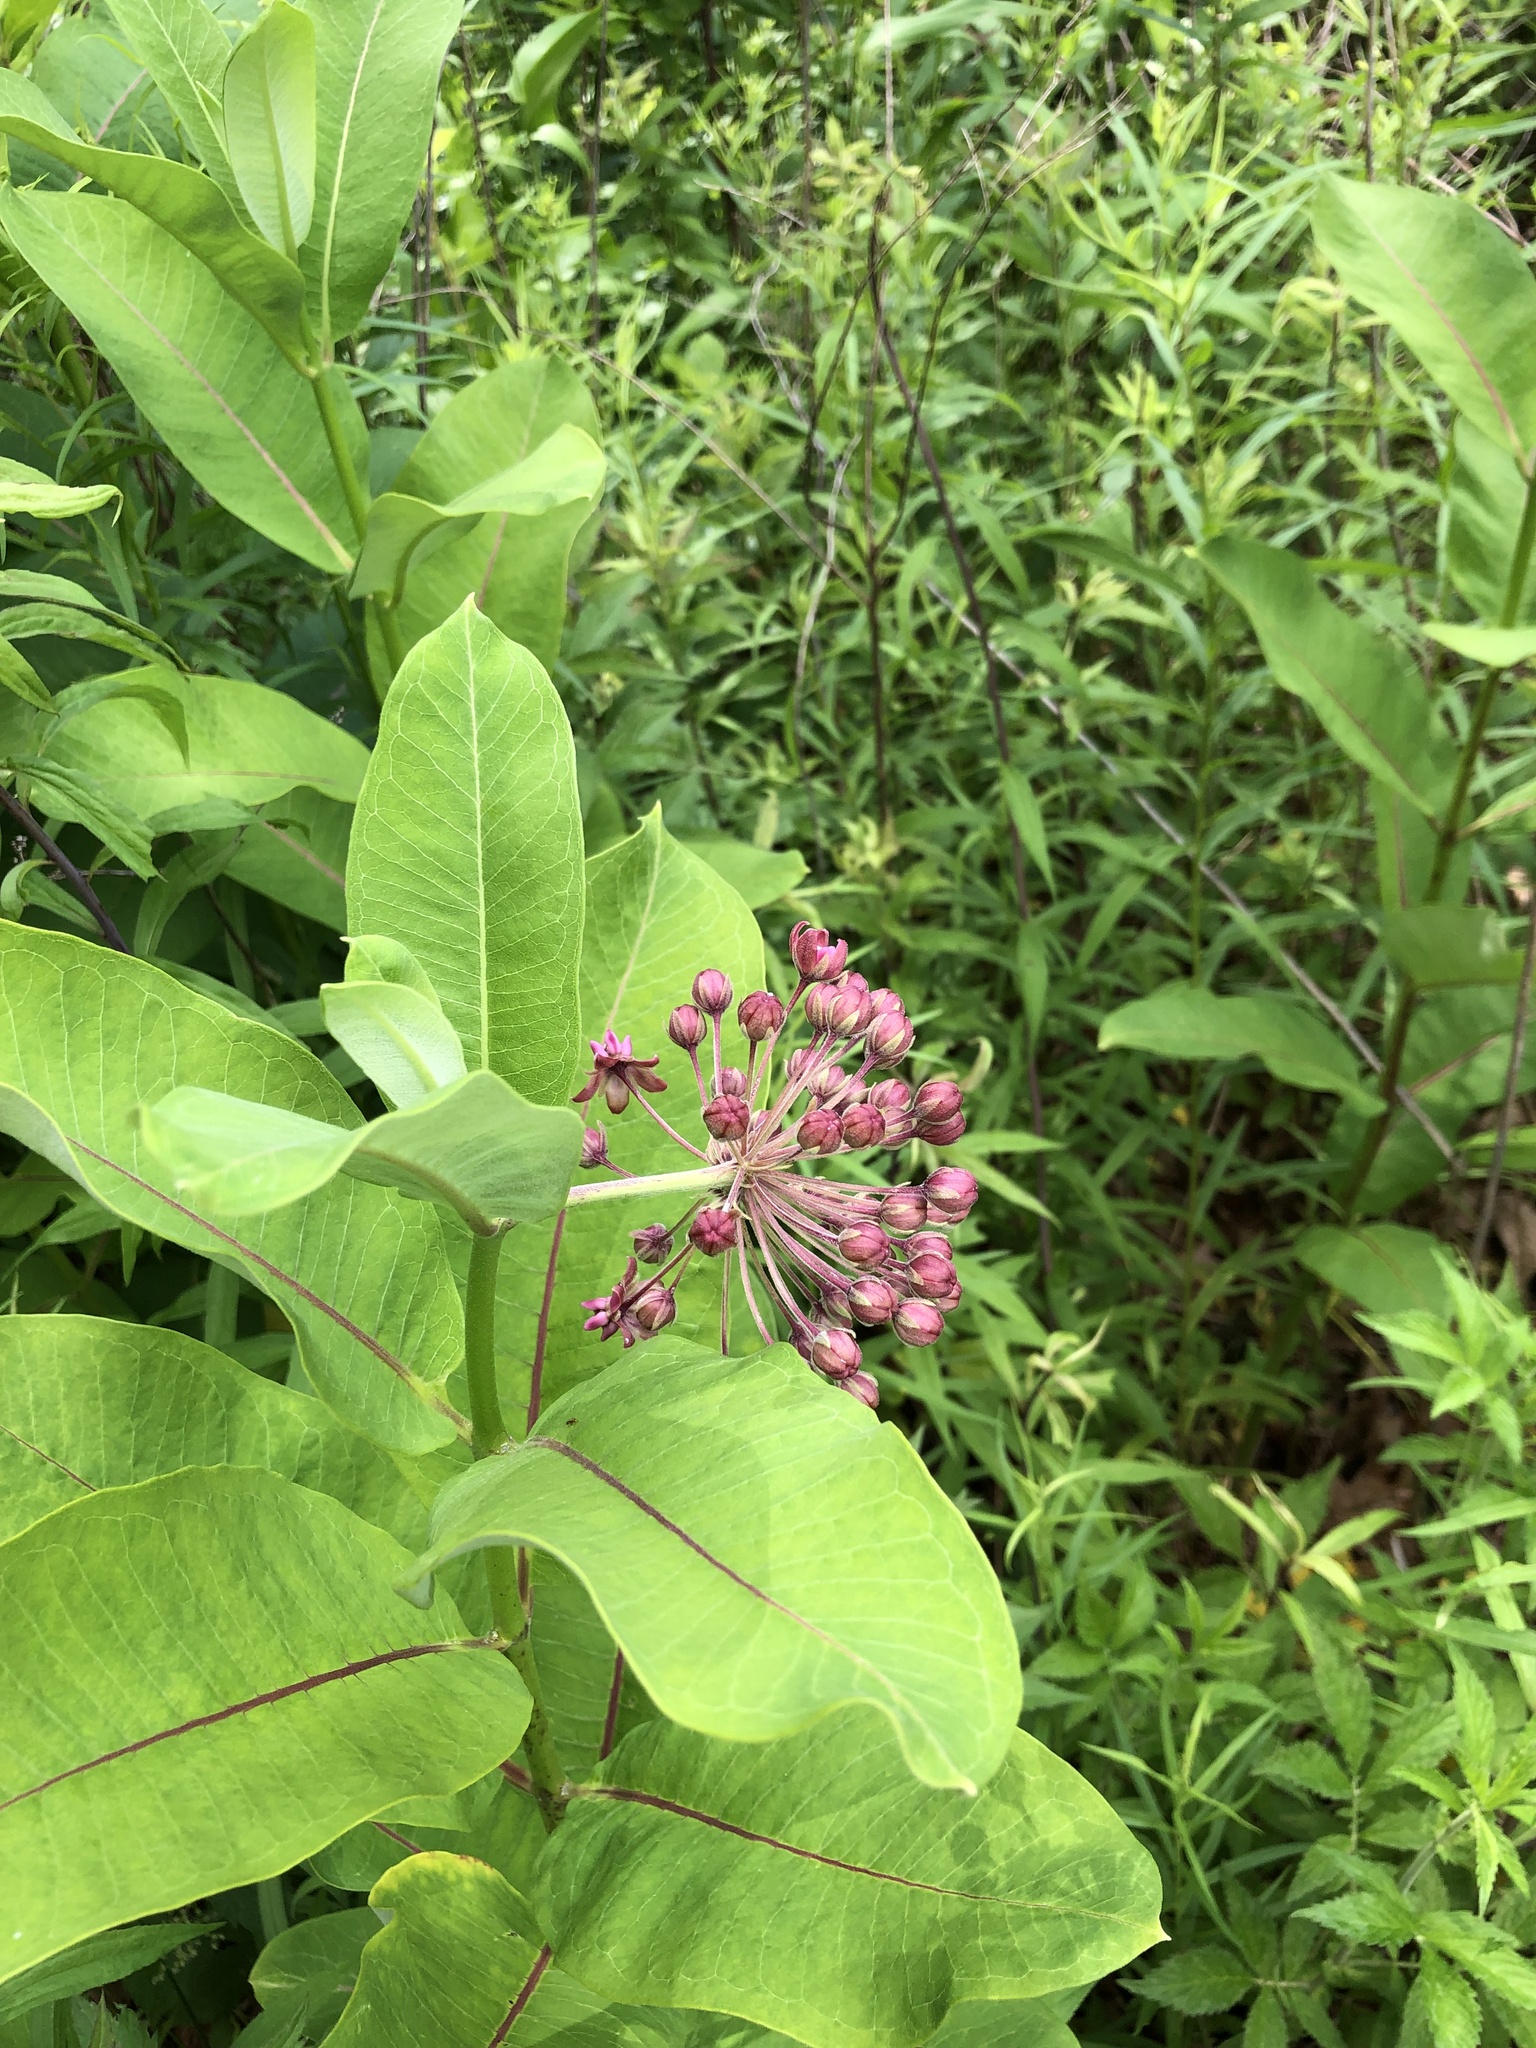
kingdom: Plantae
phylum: Tracheophyta
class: Magnoliopsida
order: Gentianales
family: Apocynaceae
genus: Asclepias
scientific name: Asclepias syriaca
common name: Common milkweed
